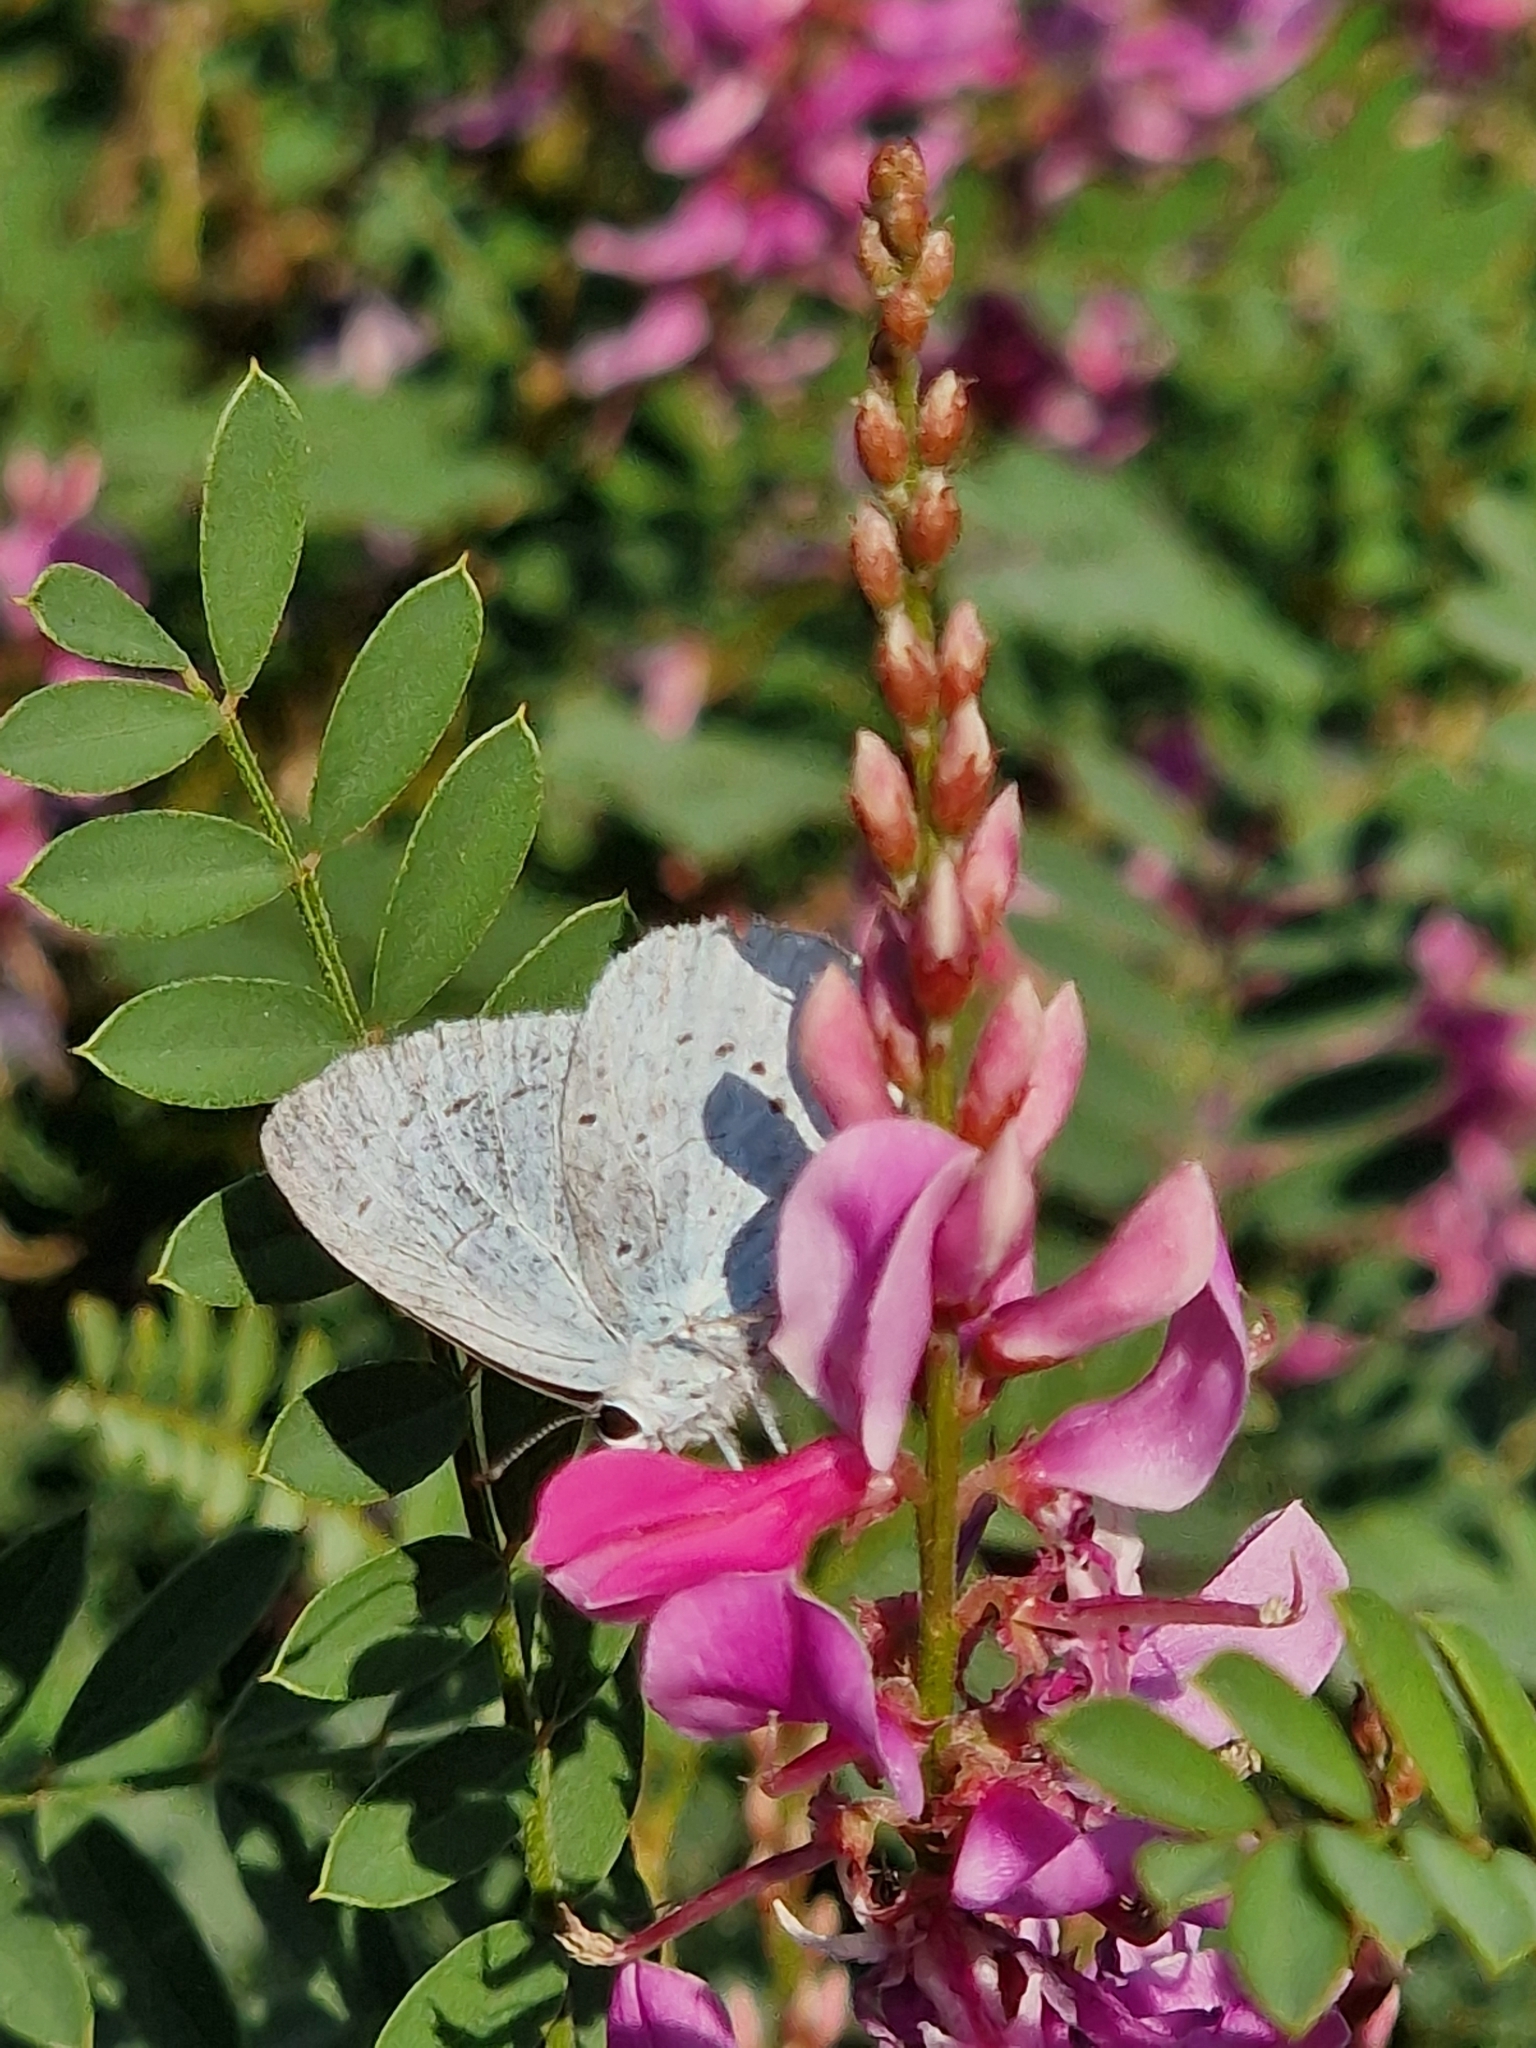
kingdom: Animalia
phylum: Arthropoda
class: Insecta
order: Lepidoptera
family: Lycaenidae
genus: Celastrina
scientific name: Celastrina argiolus
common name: Holly blue
